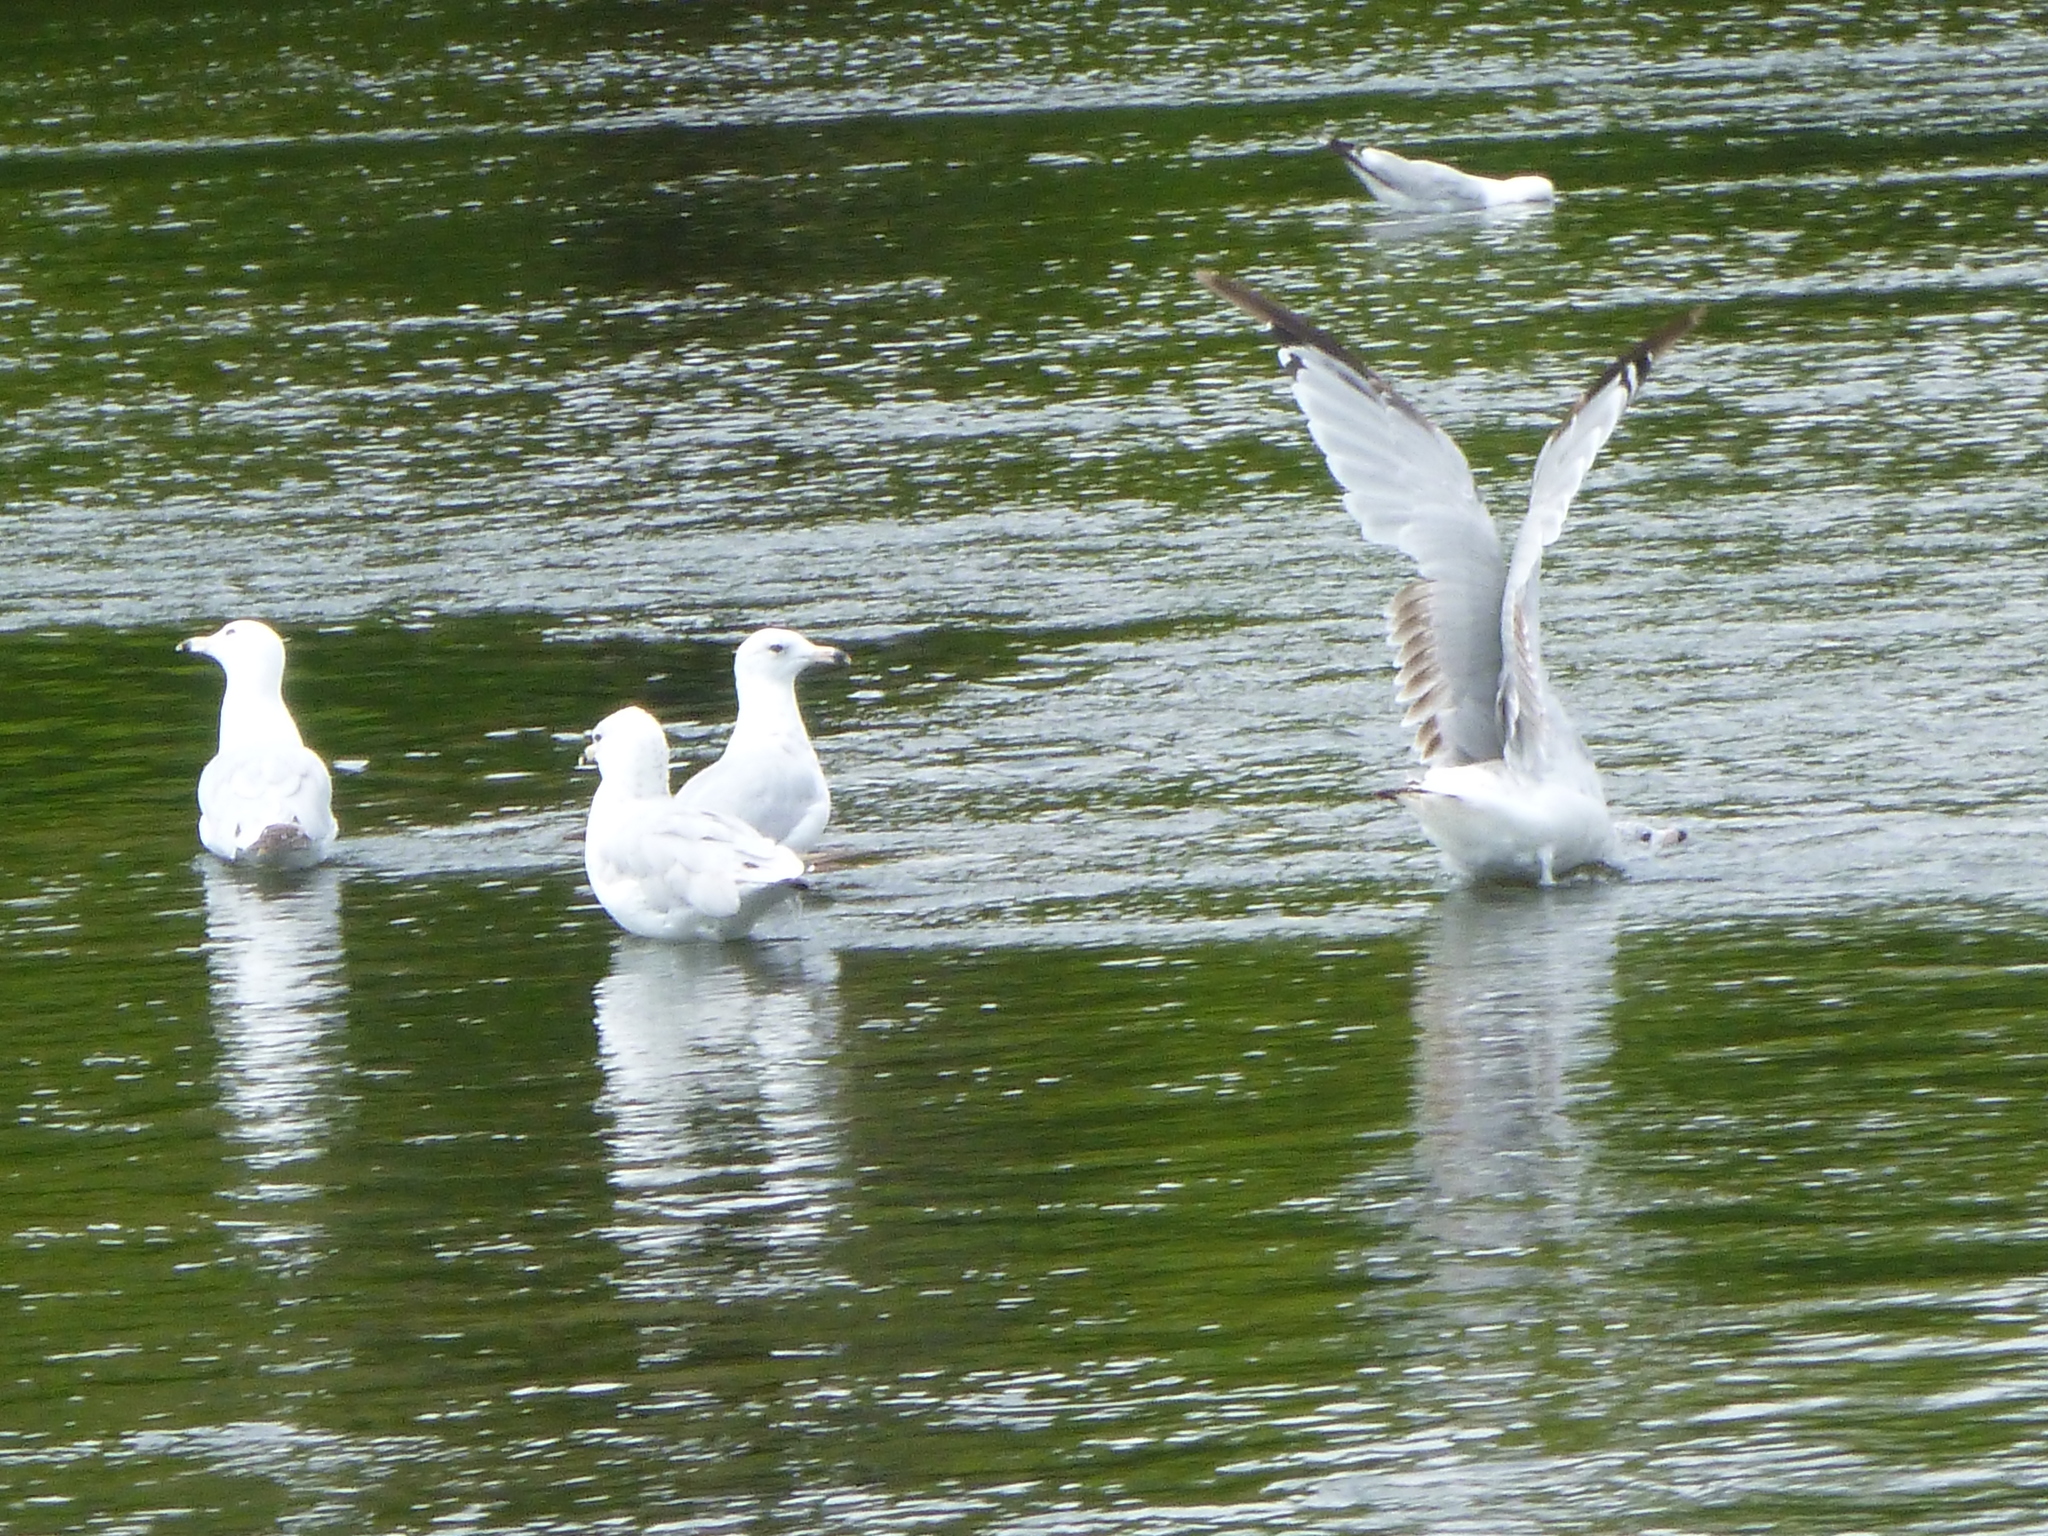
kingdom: Animalia
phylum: Chordata
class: Aves
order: Charadriiformes
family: Laridae
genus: Larus
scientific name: Larus delawarensis
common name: Ring-billed gull
